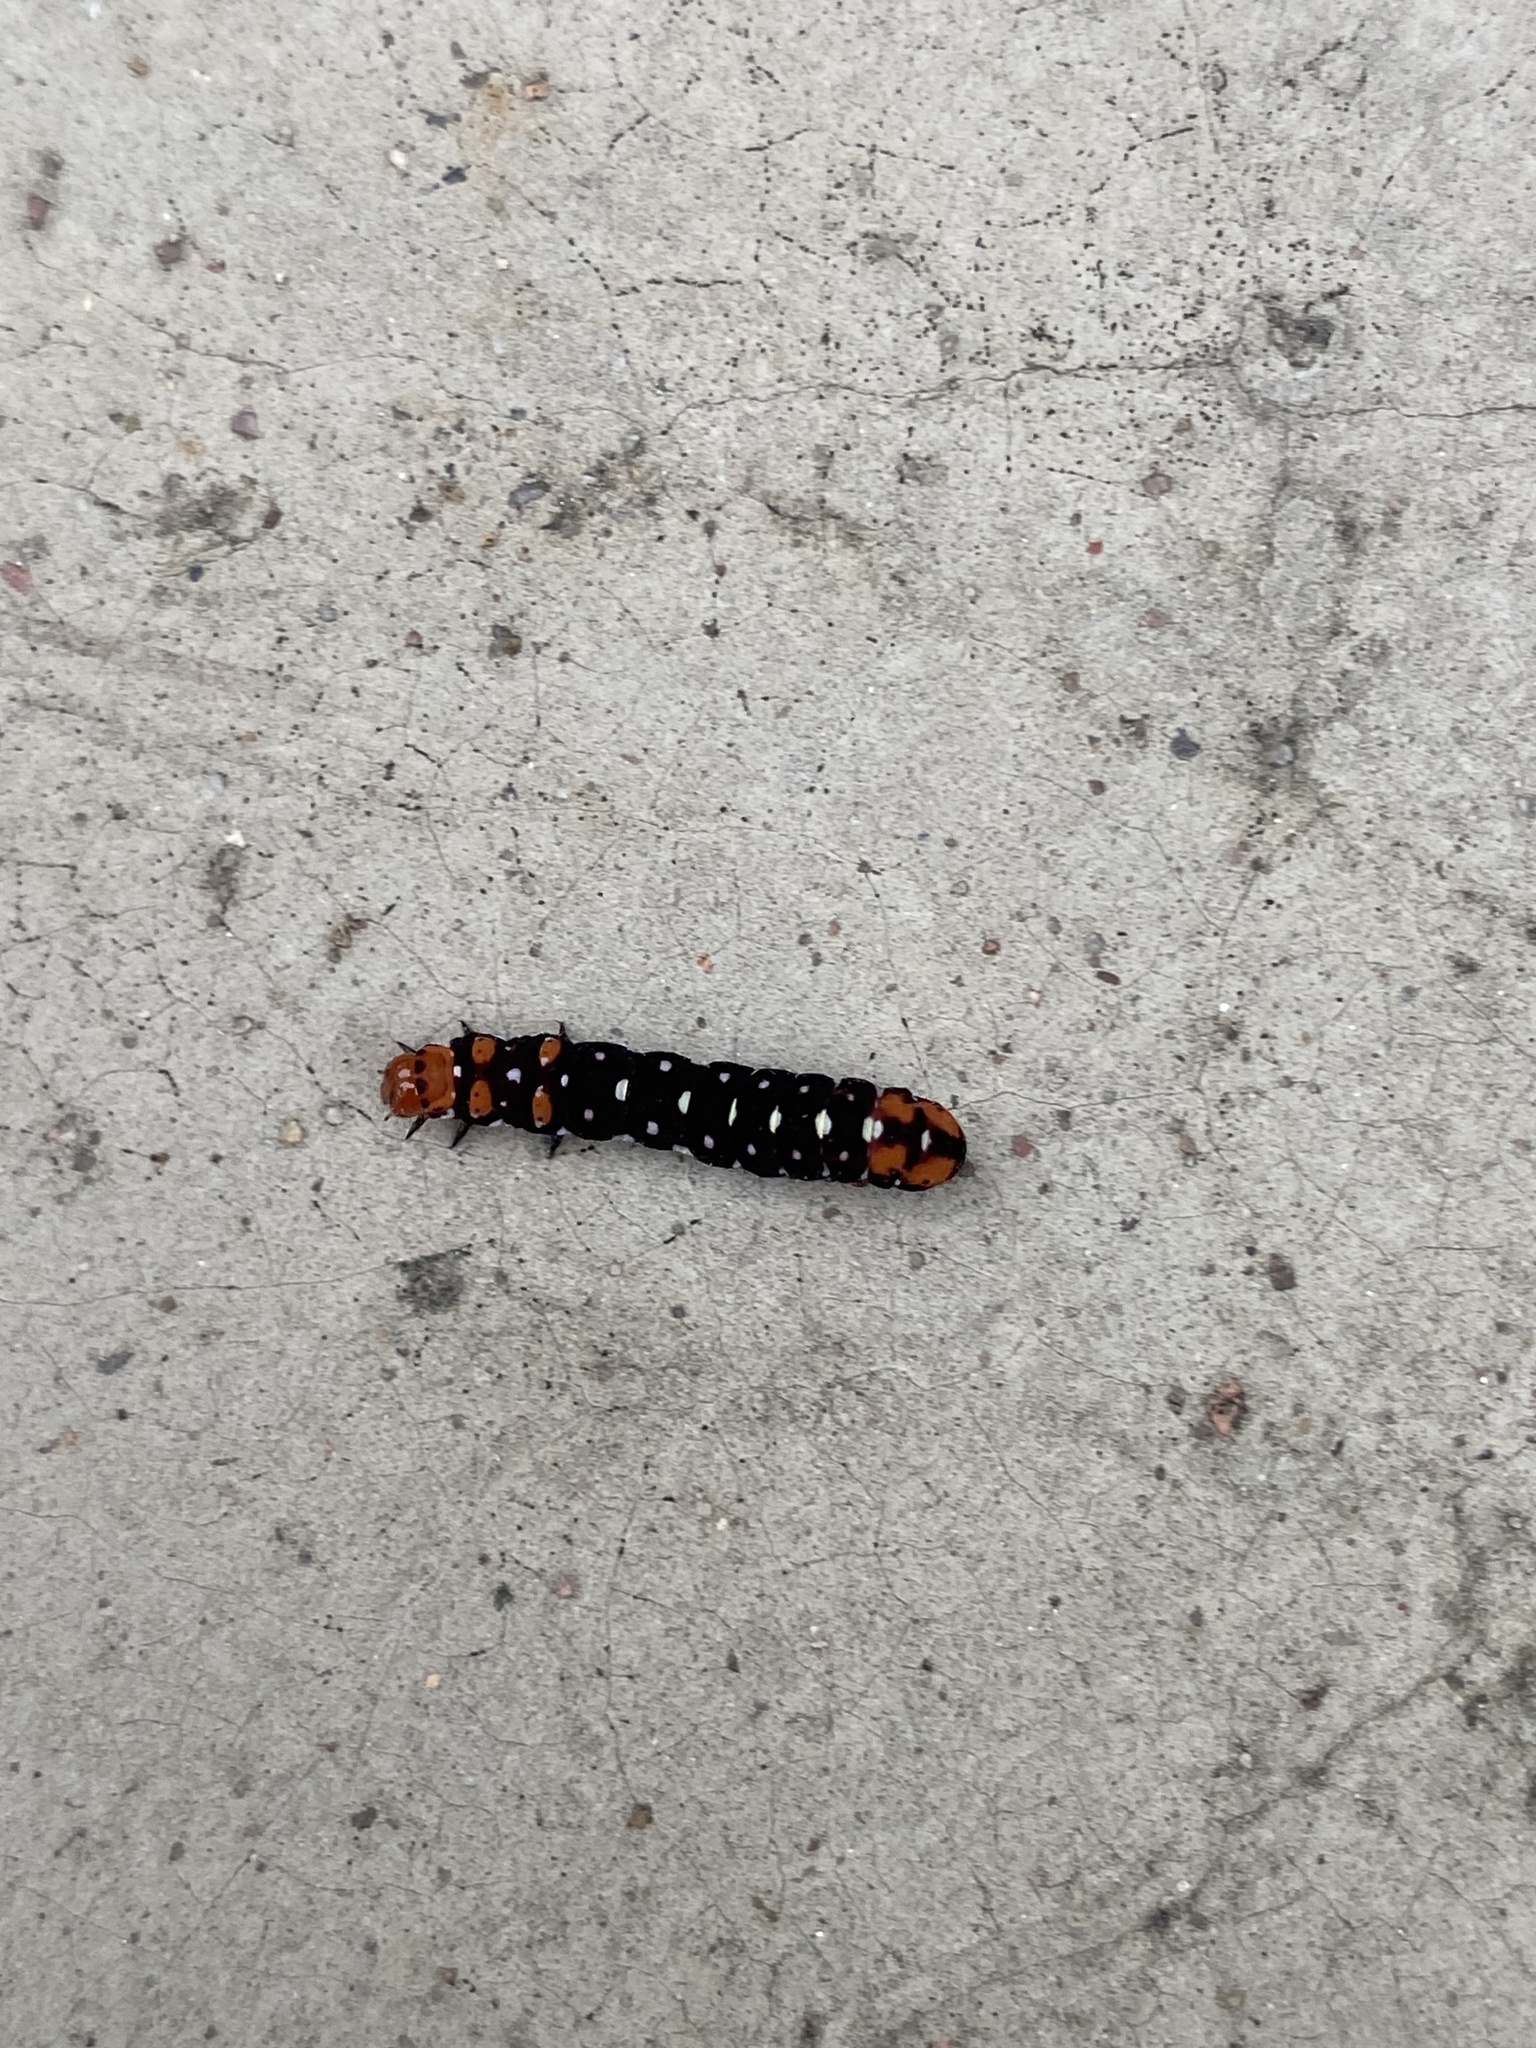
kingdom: Animalia
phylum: Arthropoda
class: Insecta
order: Lepidoptera
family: Noctuidae
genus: Polytela
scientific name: Polytela gloriosae
